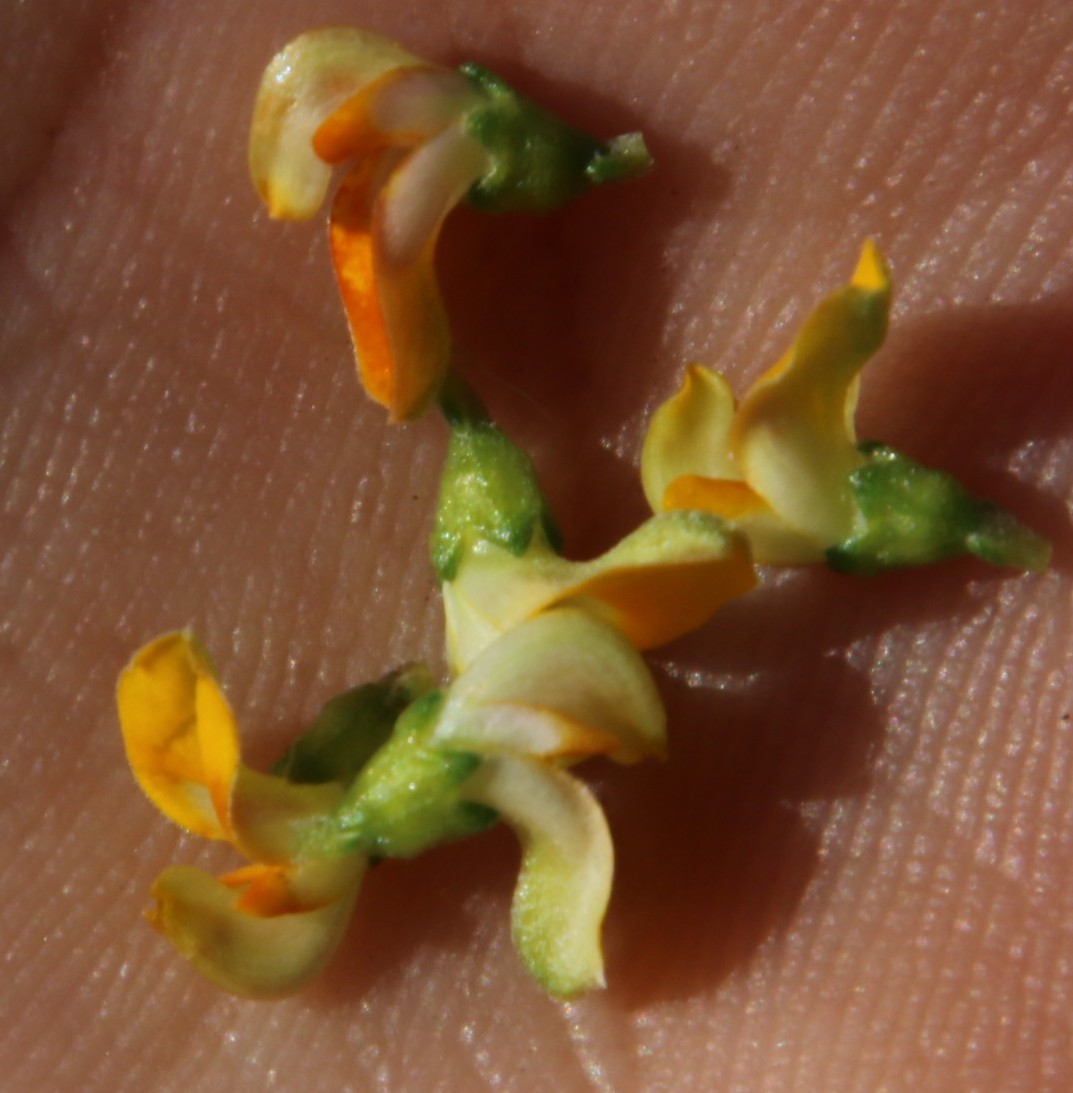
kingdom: Plantae
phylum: Tracheophyta
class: Magnoliopsida
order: Fabales
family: Fabaceae
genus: Aspalathus
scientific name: Aspalathus divaricata
